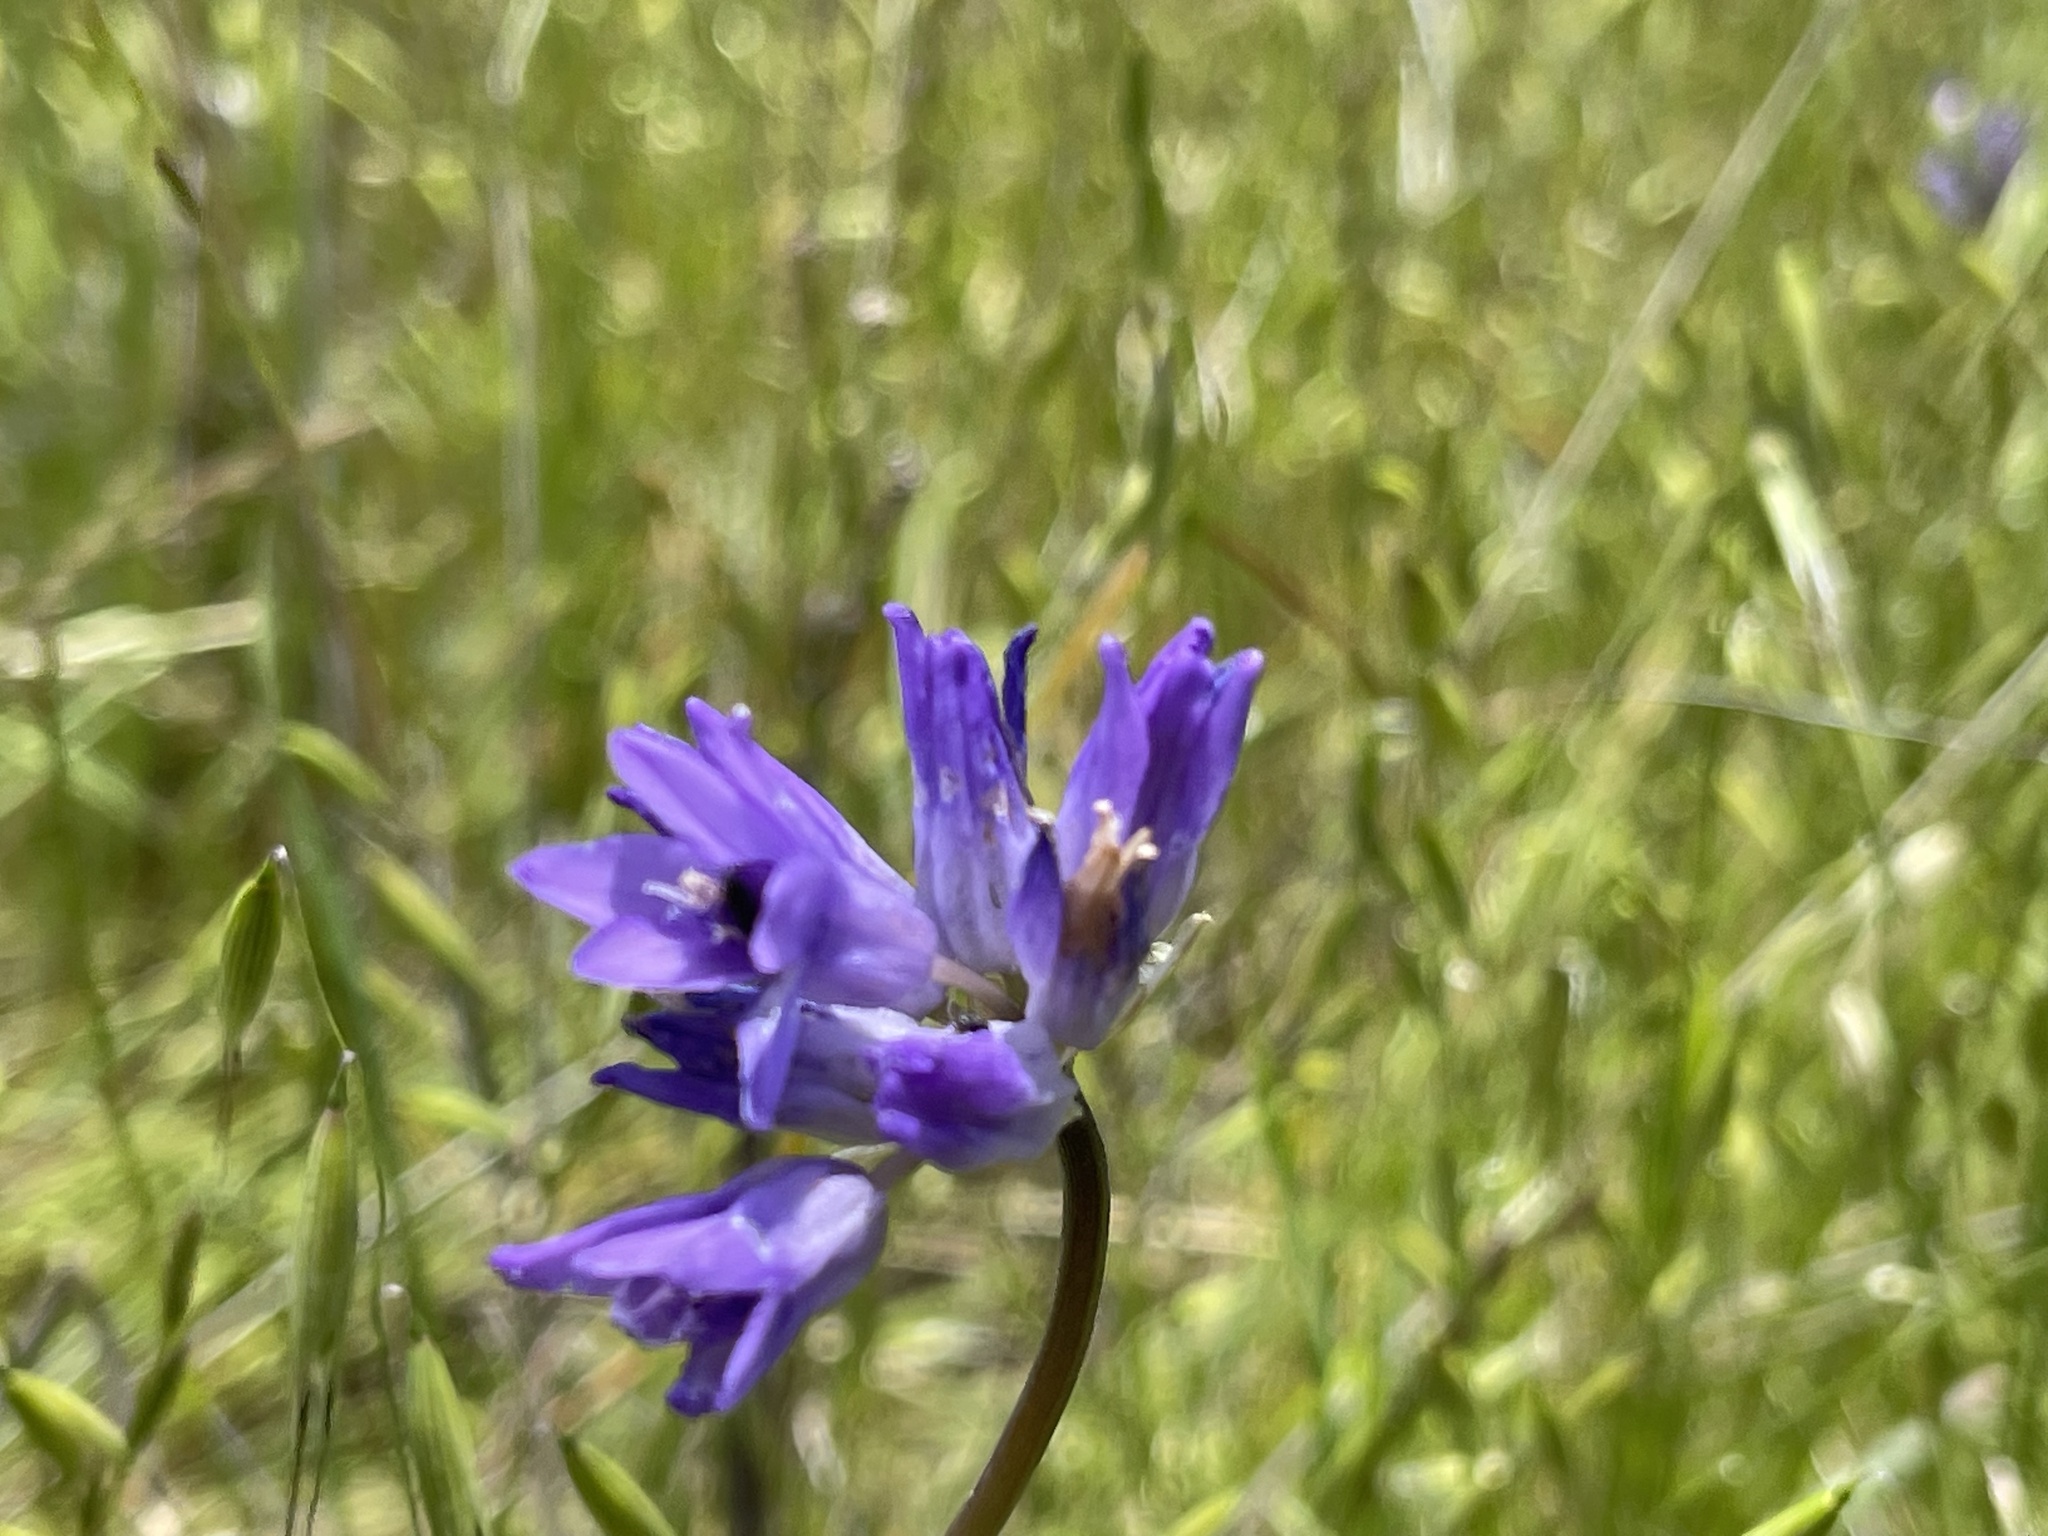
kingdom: Plantae
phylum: Tracheophyta
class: Liliopsida
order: Asparagales
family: Asparagaceae
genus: Dipterostemon
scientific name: Dipterostemon capitatus
